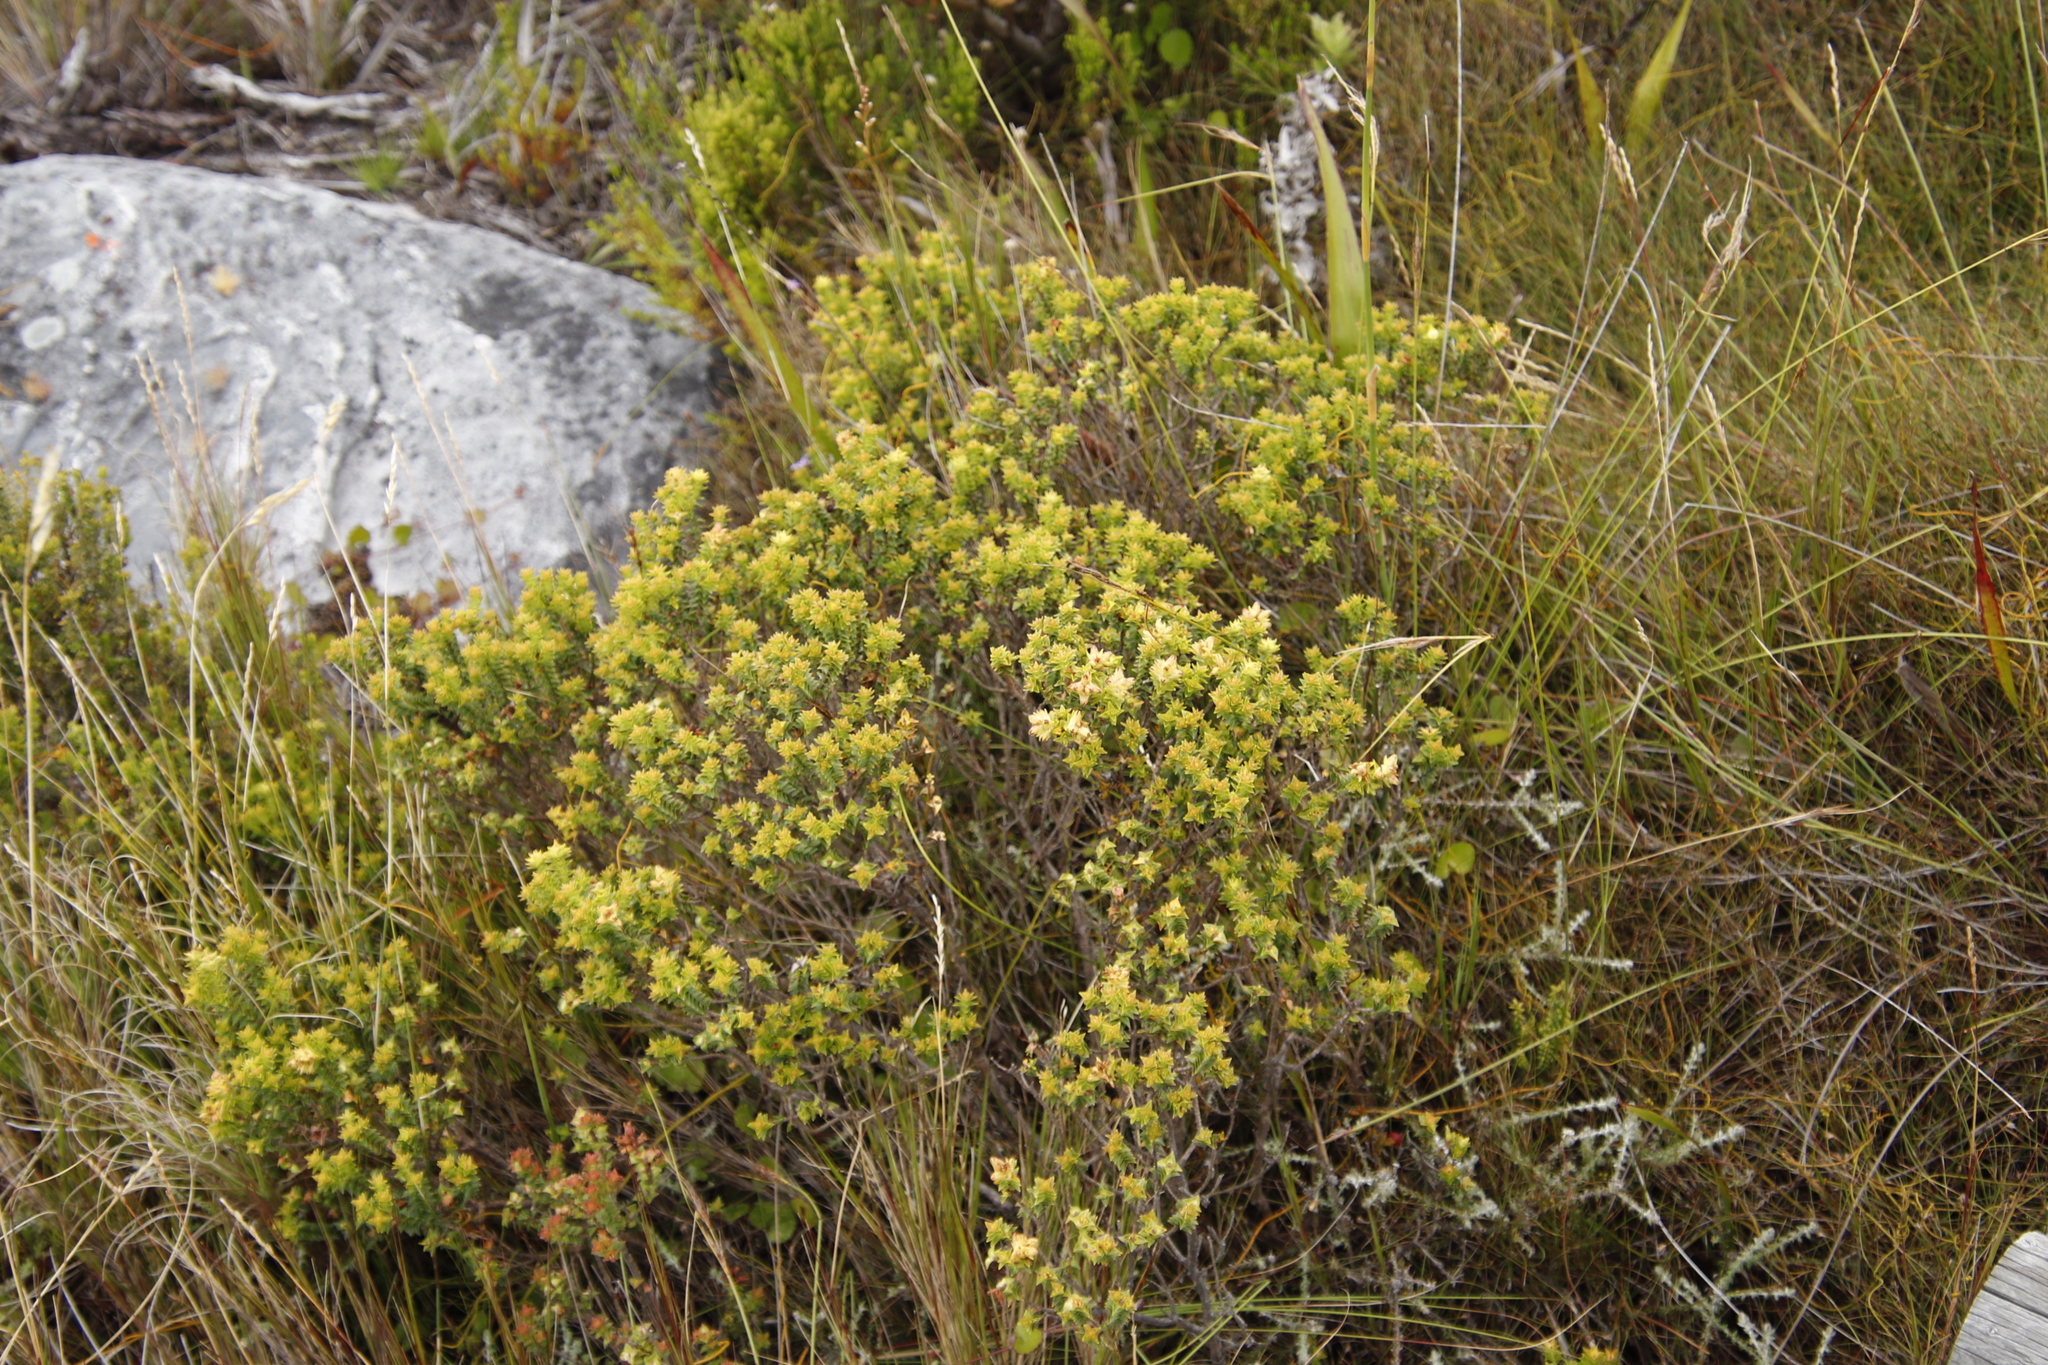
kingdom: Plantae
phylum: Tracheophyta
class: Magnoliopsida
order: Myrtales
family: Penaeaceae
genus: Penaea
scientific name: Penaea mucronata
